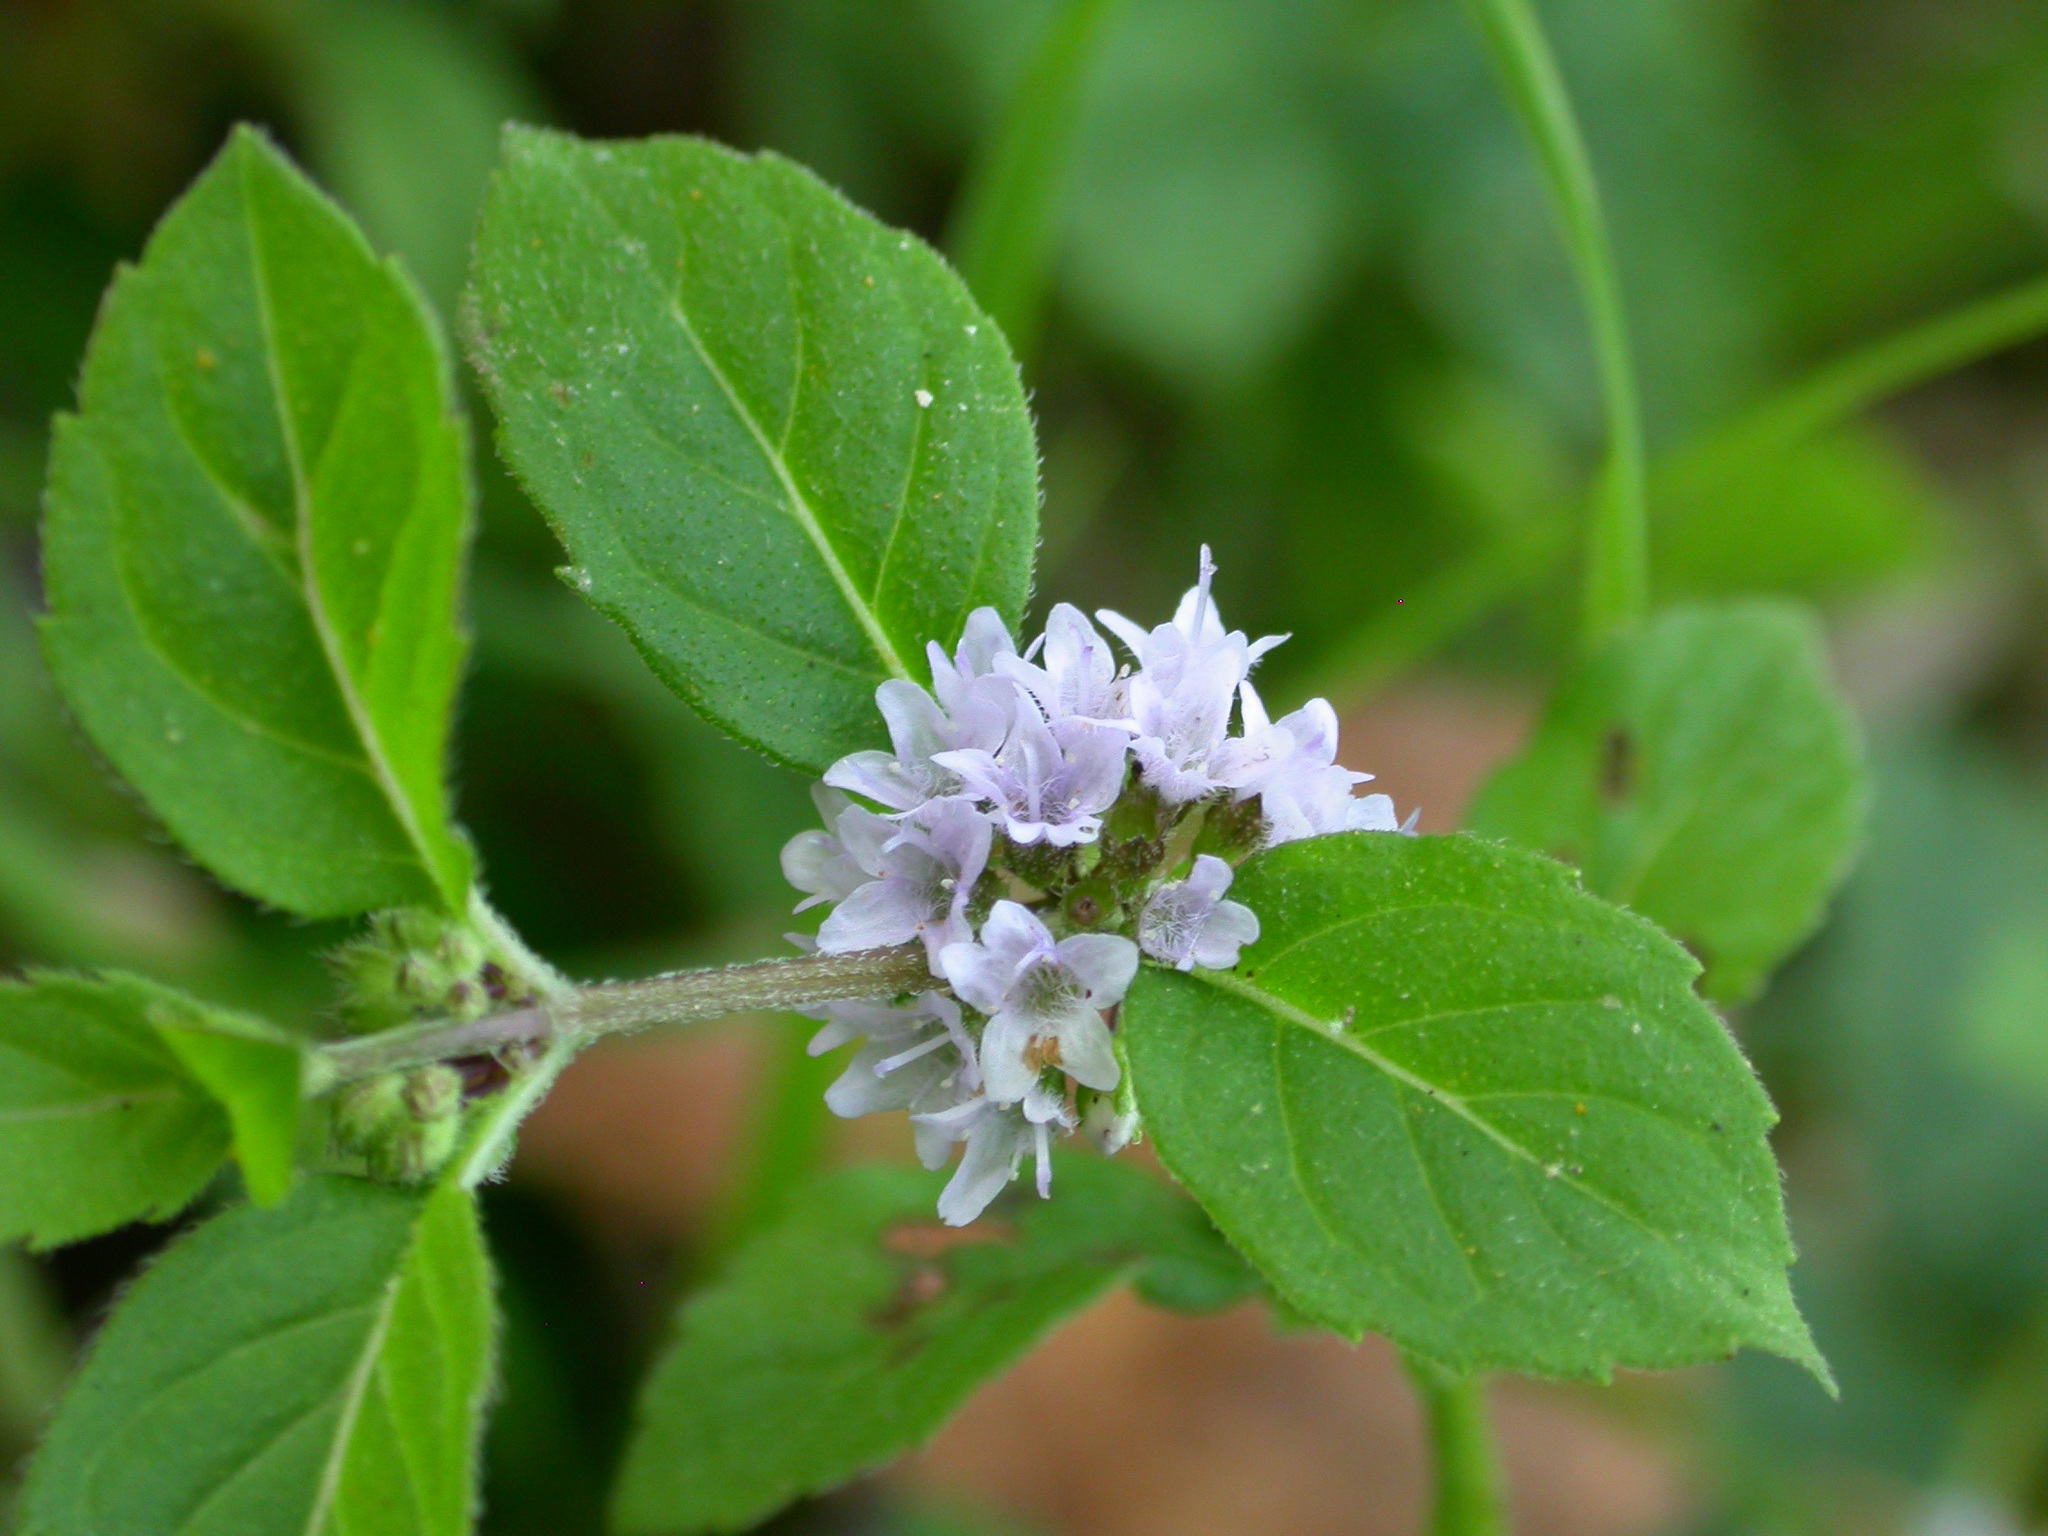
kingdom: Plantae
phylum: Tracheophyta
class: Magnoliopsida
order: Lamiales
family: Lamiaceae
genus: Mentha
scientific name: Mentha arvensis
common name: Corn mint
